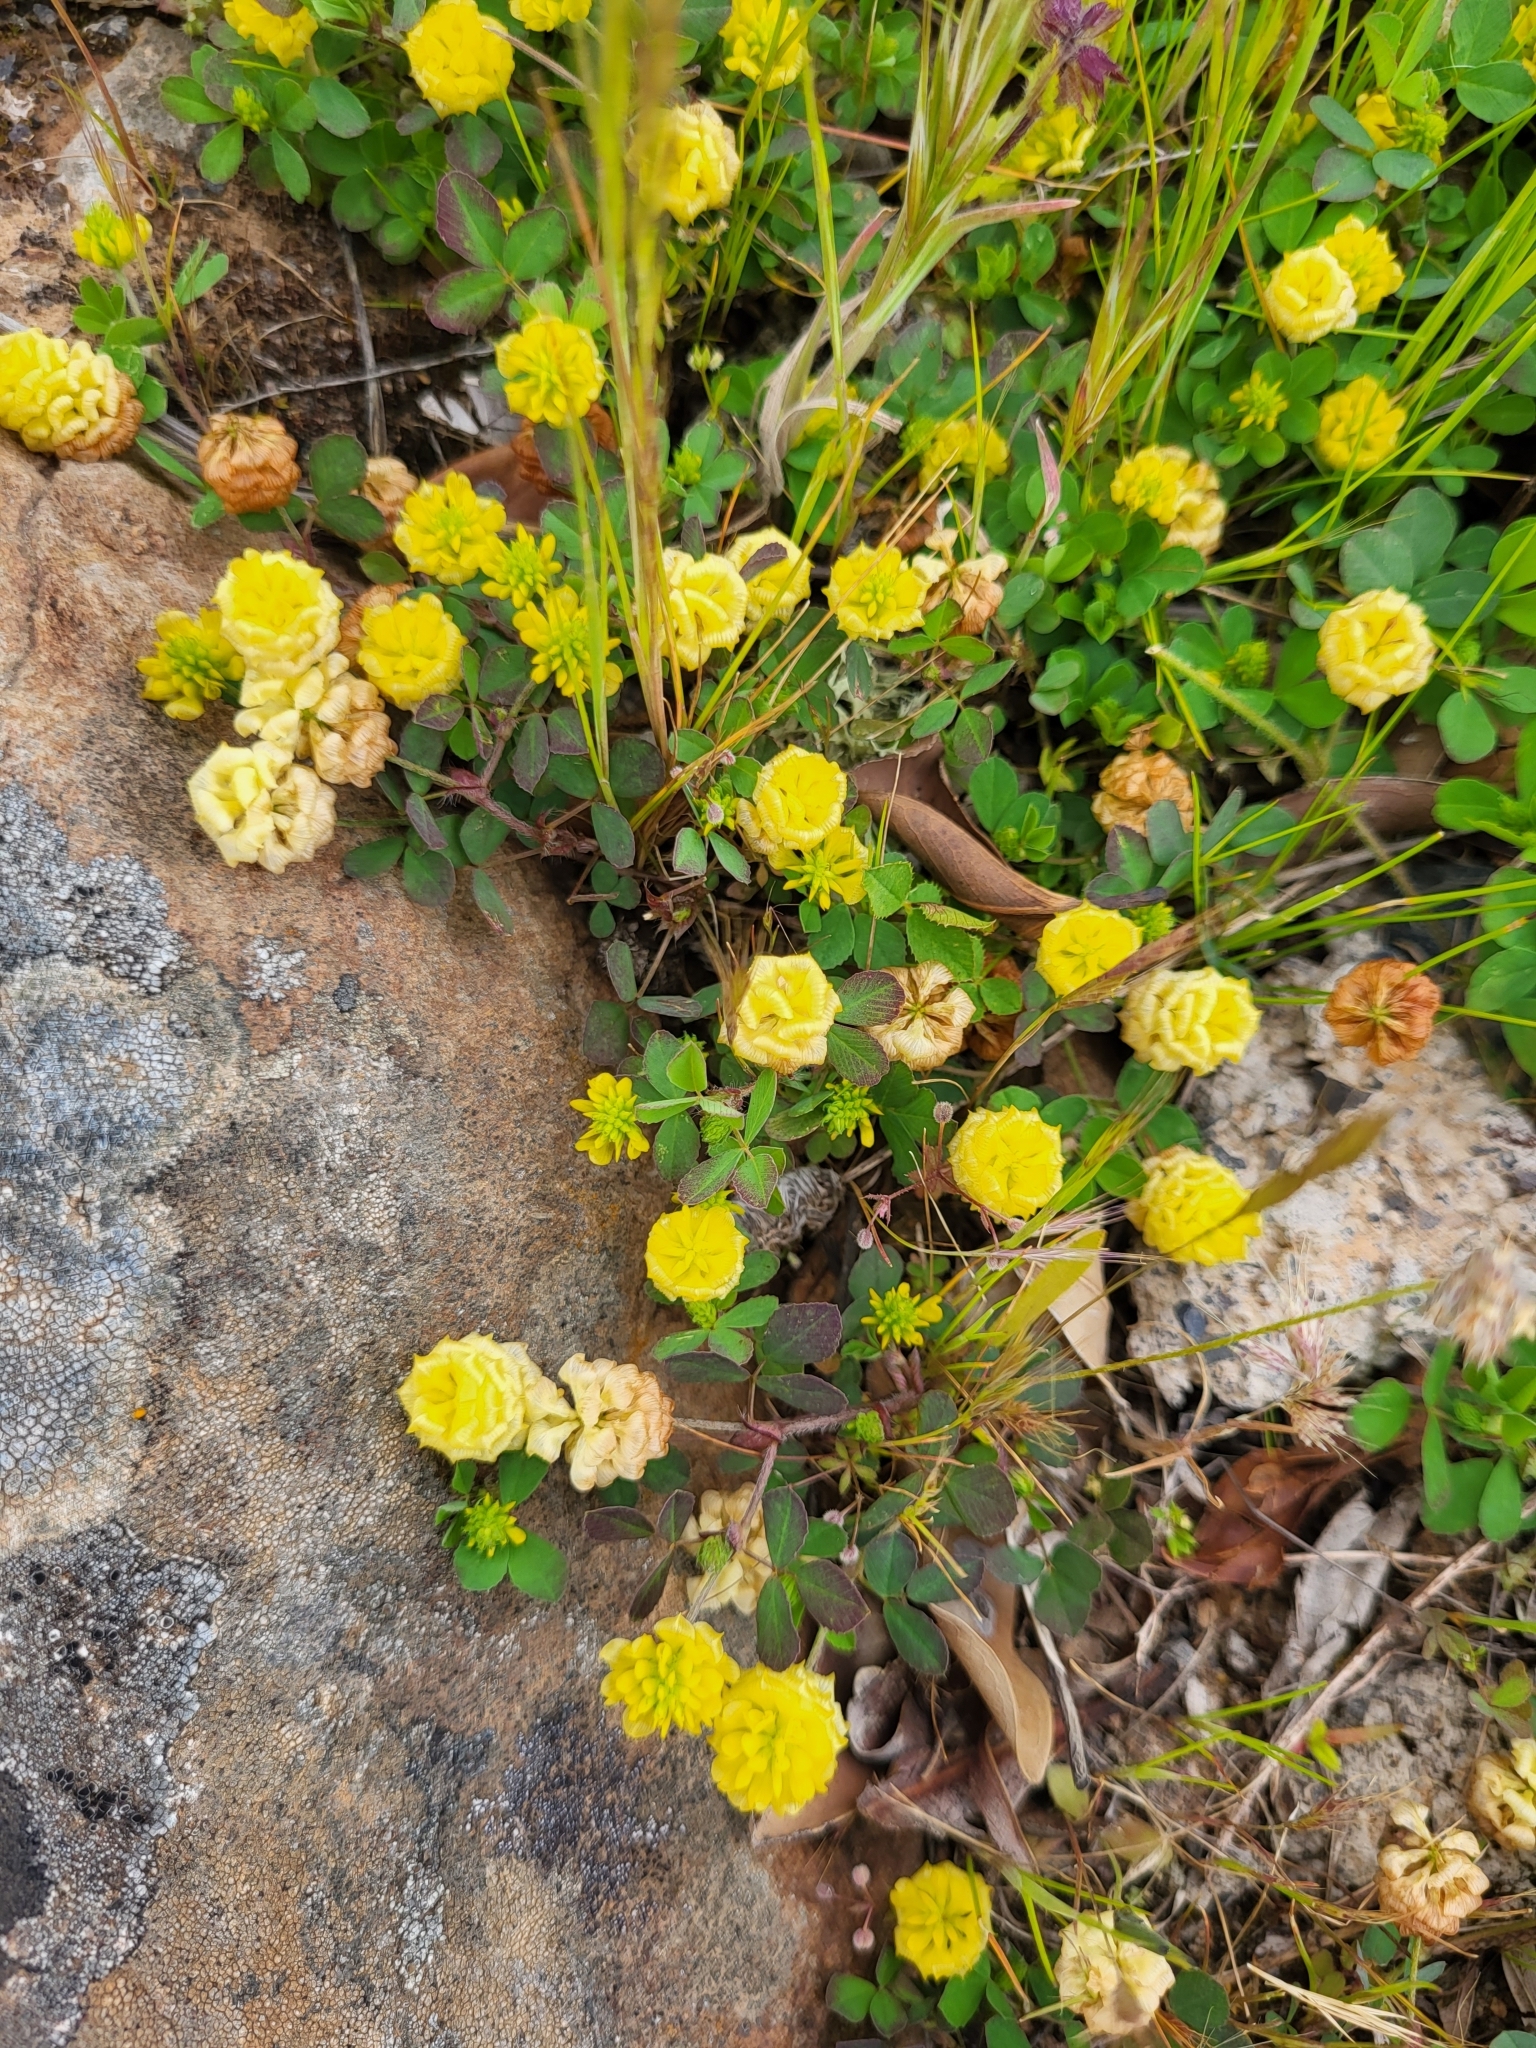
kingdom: Plantae
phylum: Tracheophyta
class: Magnoliopsida
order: Fabales
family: Fabaceae
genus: Trifolium
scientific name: Trifolium campestre
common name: Field clover
